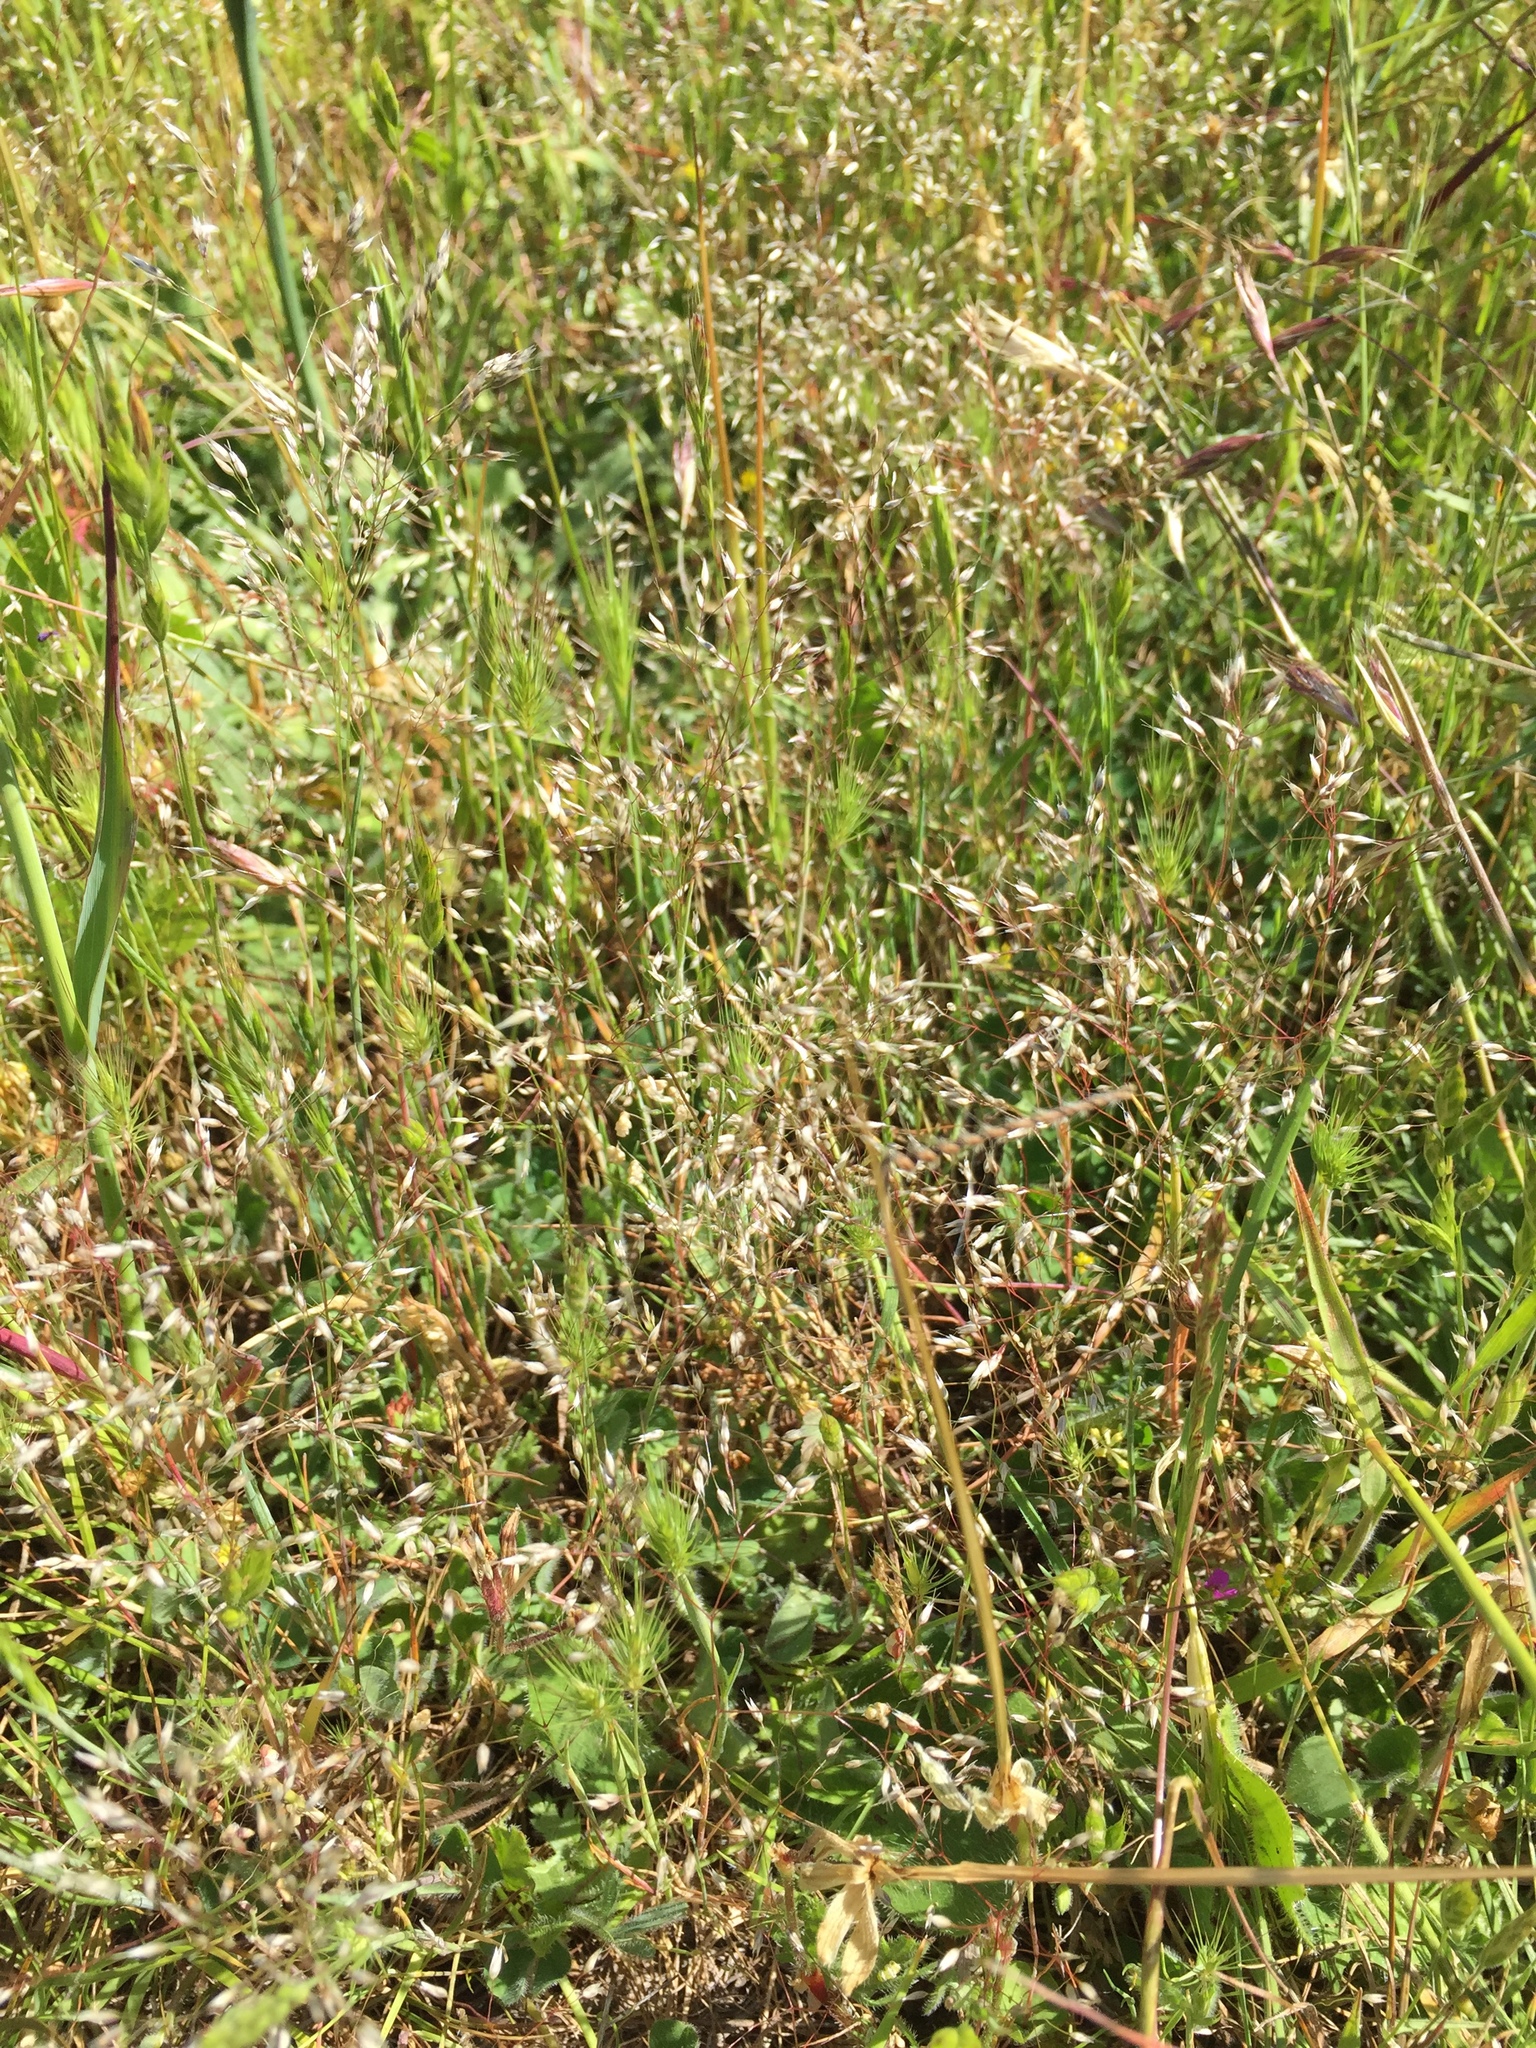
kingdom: Plantae
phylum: Tracheophyta
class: Liliopsida
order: Poales
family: Poaceae
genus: Aira
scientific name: Aira caryophyllea
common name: Silver hairgrass
